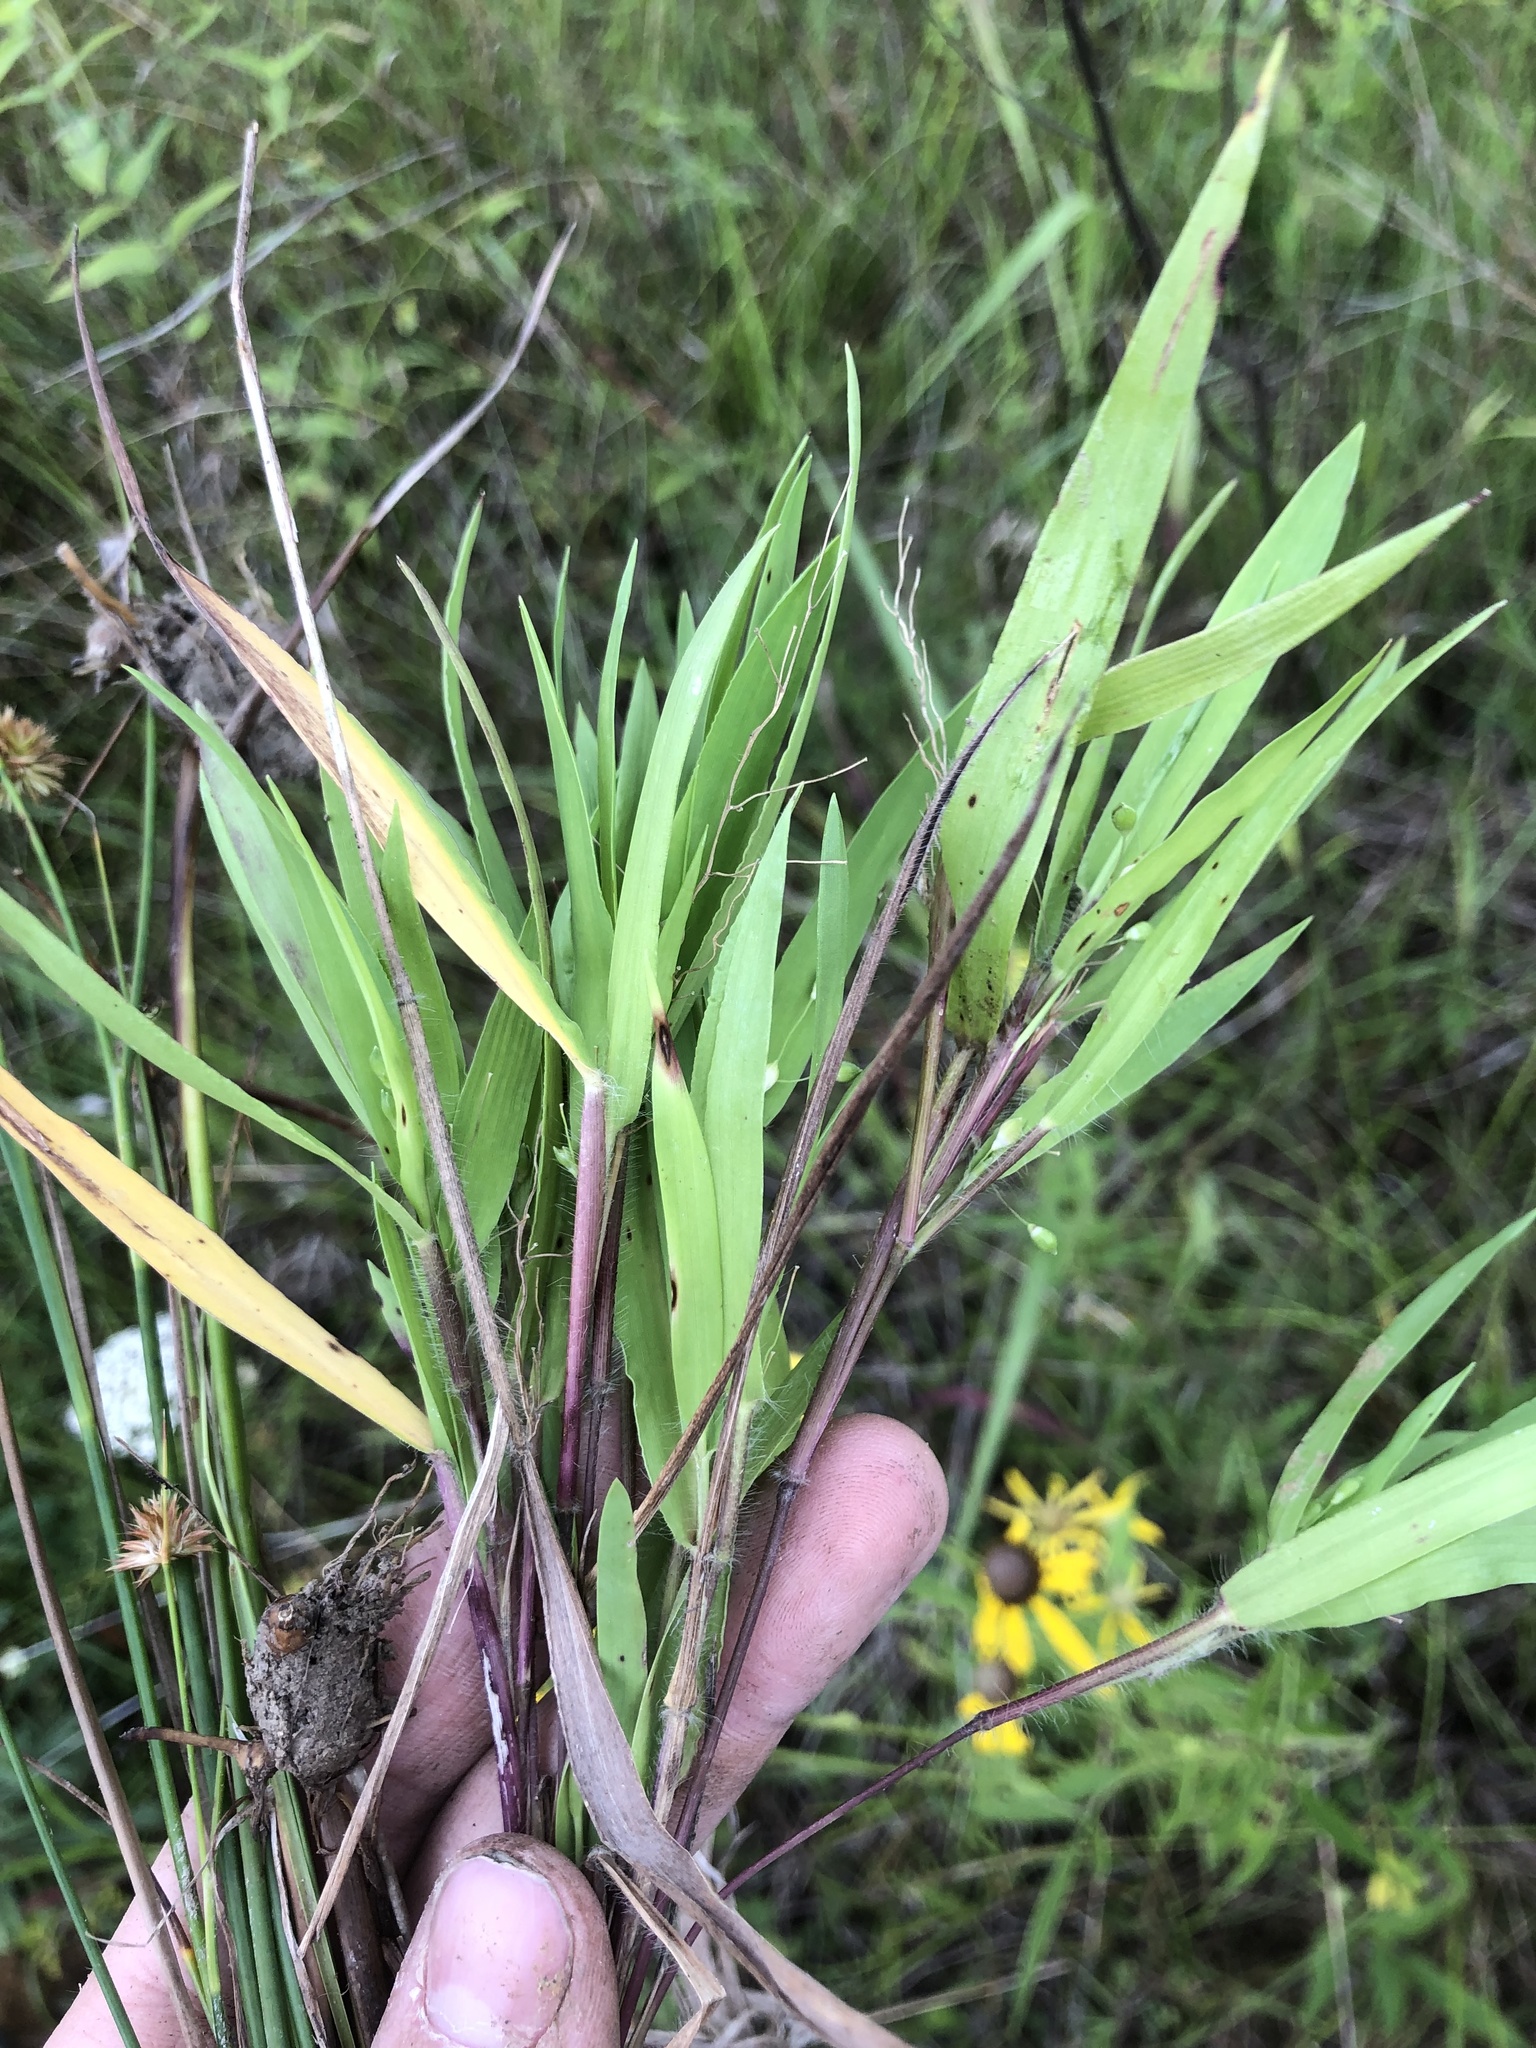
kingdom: Plantae
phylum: Tracheophyta
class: Liliopsida
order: Poales
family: Poaceae
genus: Dichanthelium
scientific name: Dichanthelium scribnerianum
